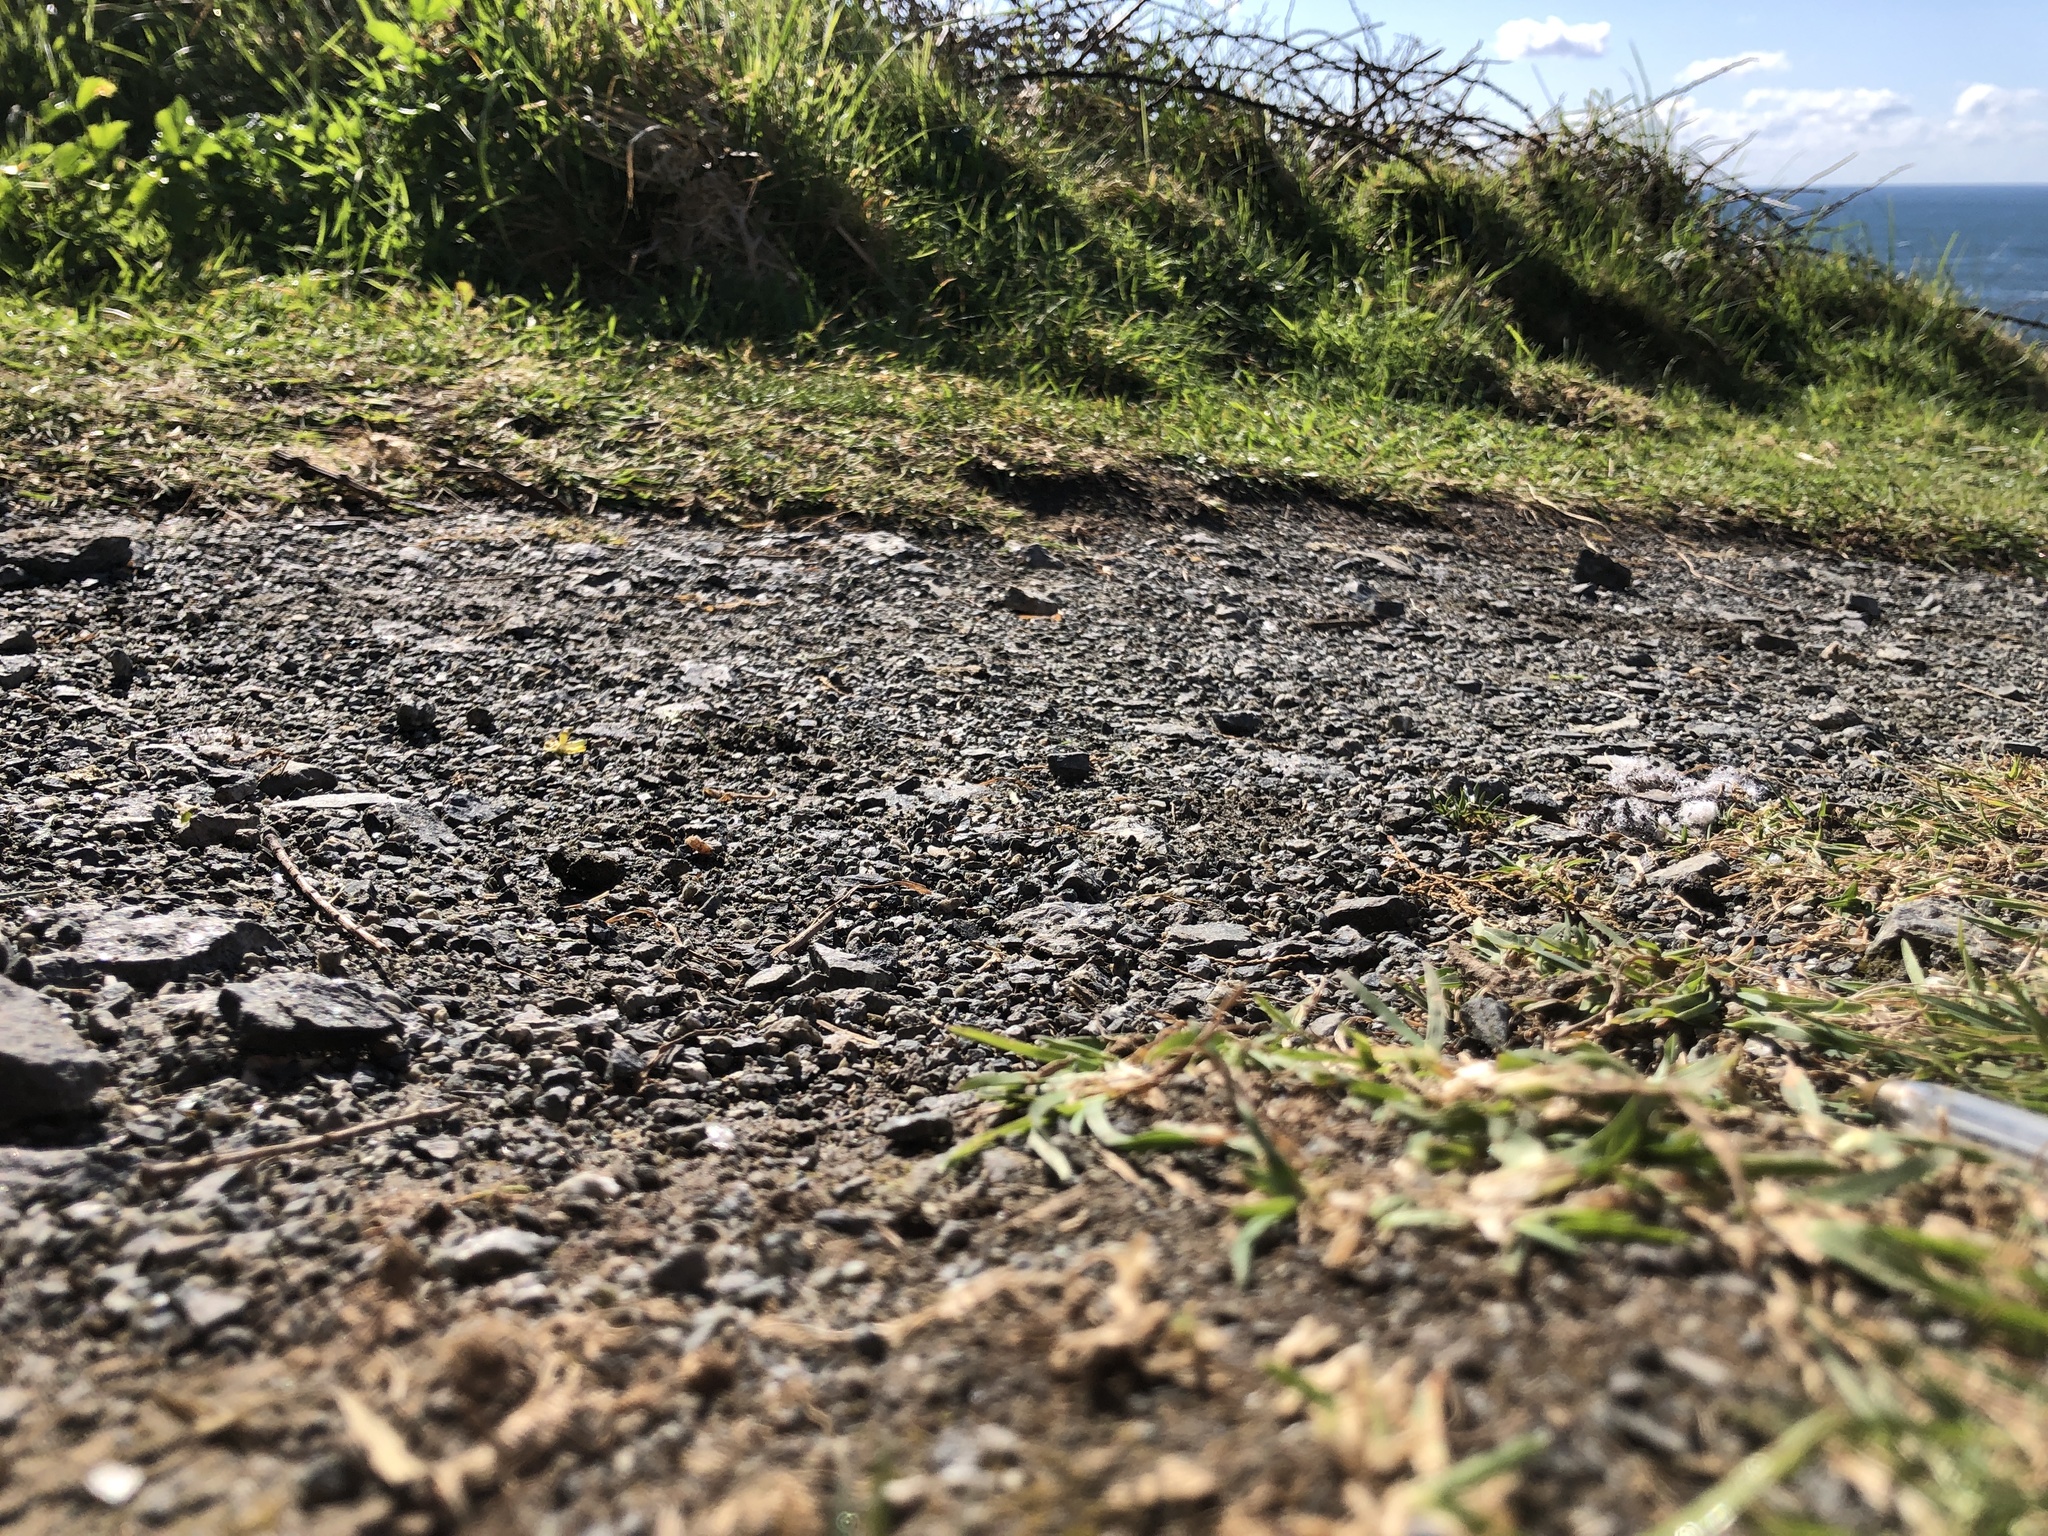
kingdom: Plantae
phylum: Bryophyta
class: Bryopsida
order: Pottiales
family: Pottiaceae
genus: Hennediella
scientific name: Hennediella stanfordensis
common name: Stanford screw-moss
